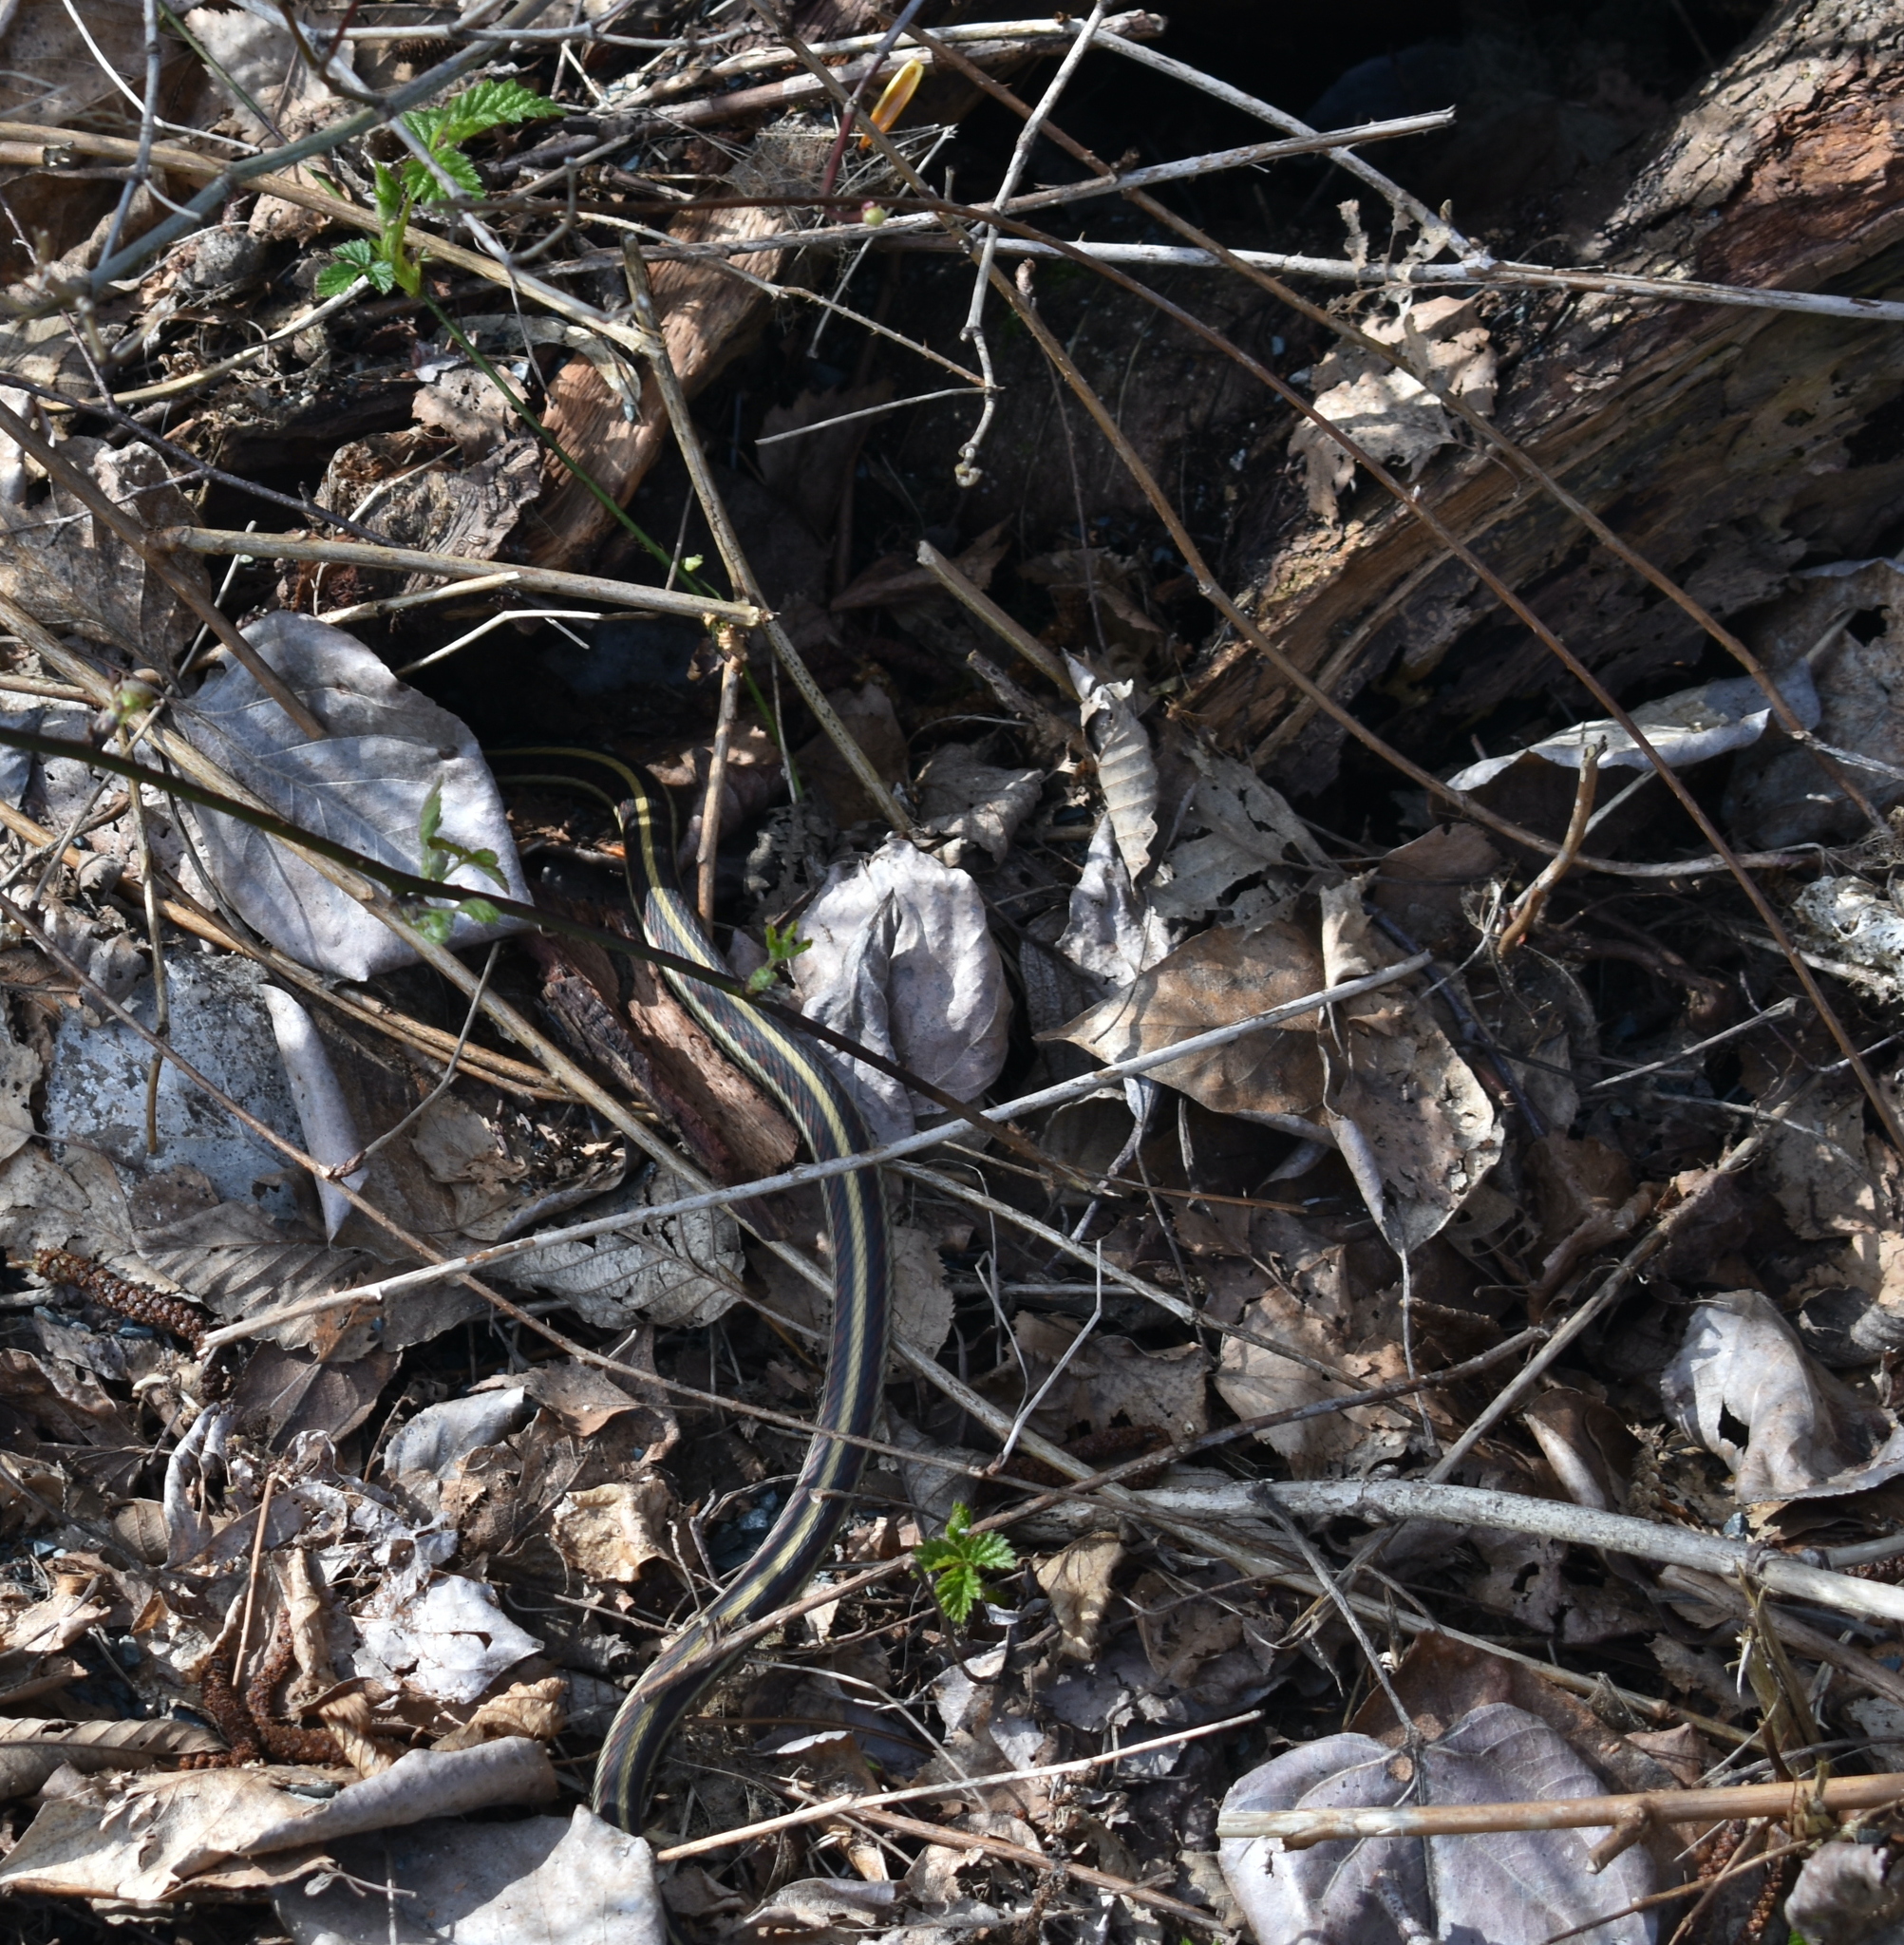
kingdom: Animalia
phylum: Chordata
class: Squamata
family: Colubridae
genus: Thamnophis
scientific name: Thamnophis sirtalis
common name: Common garter snake
